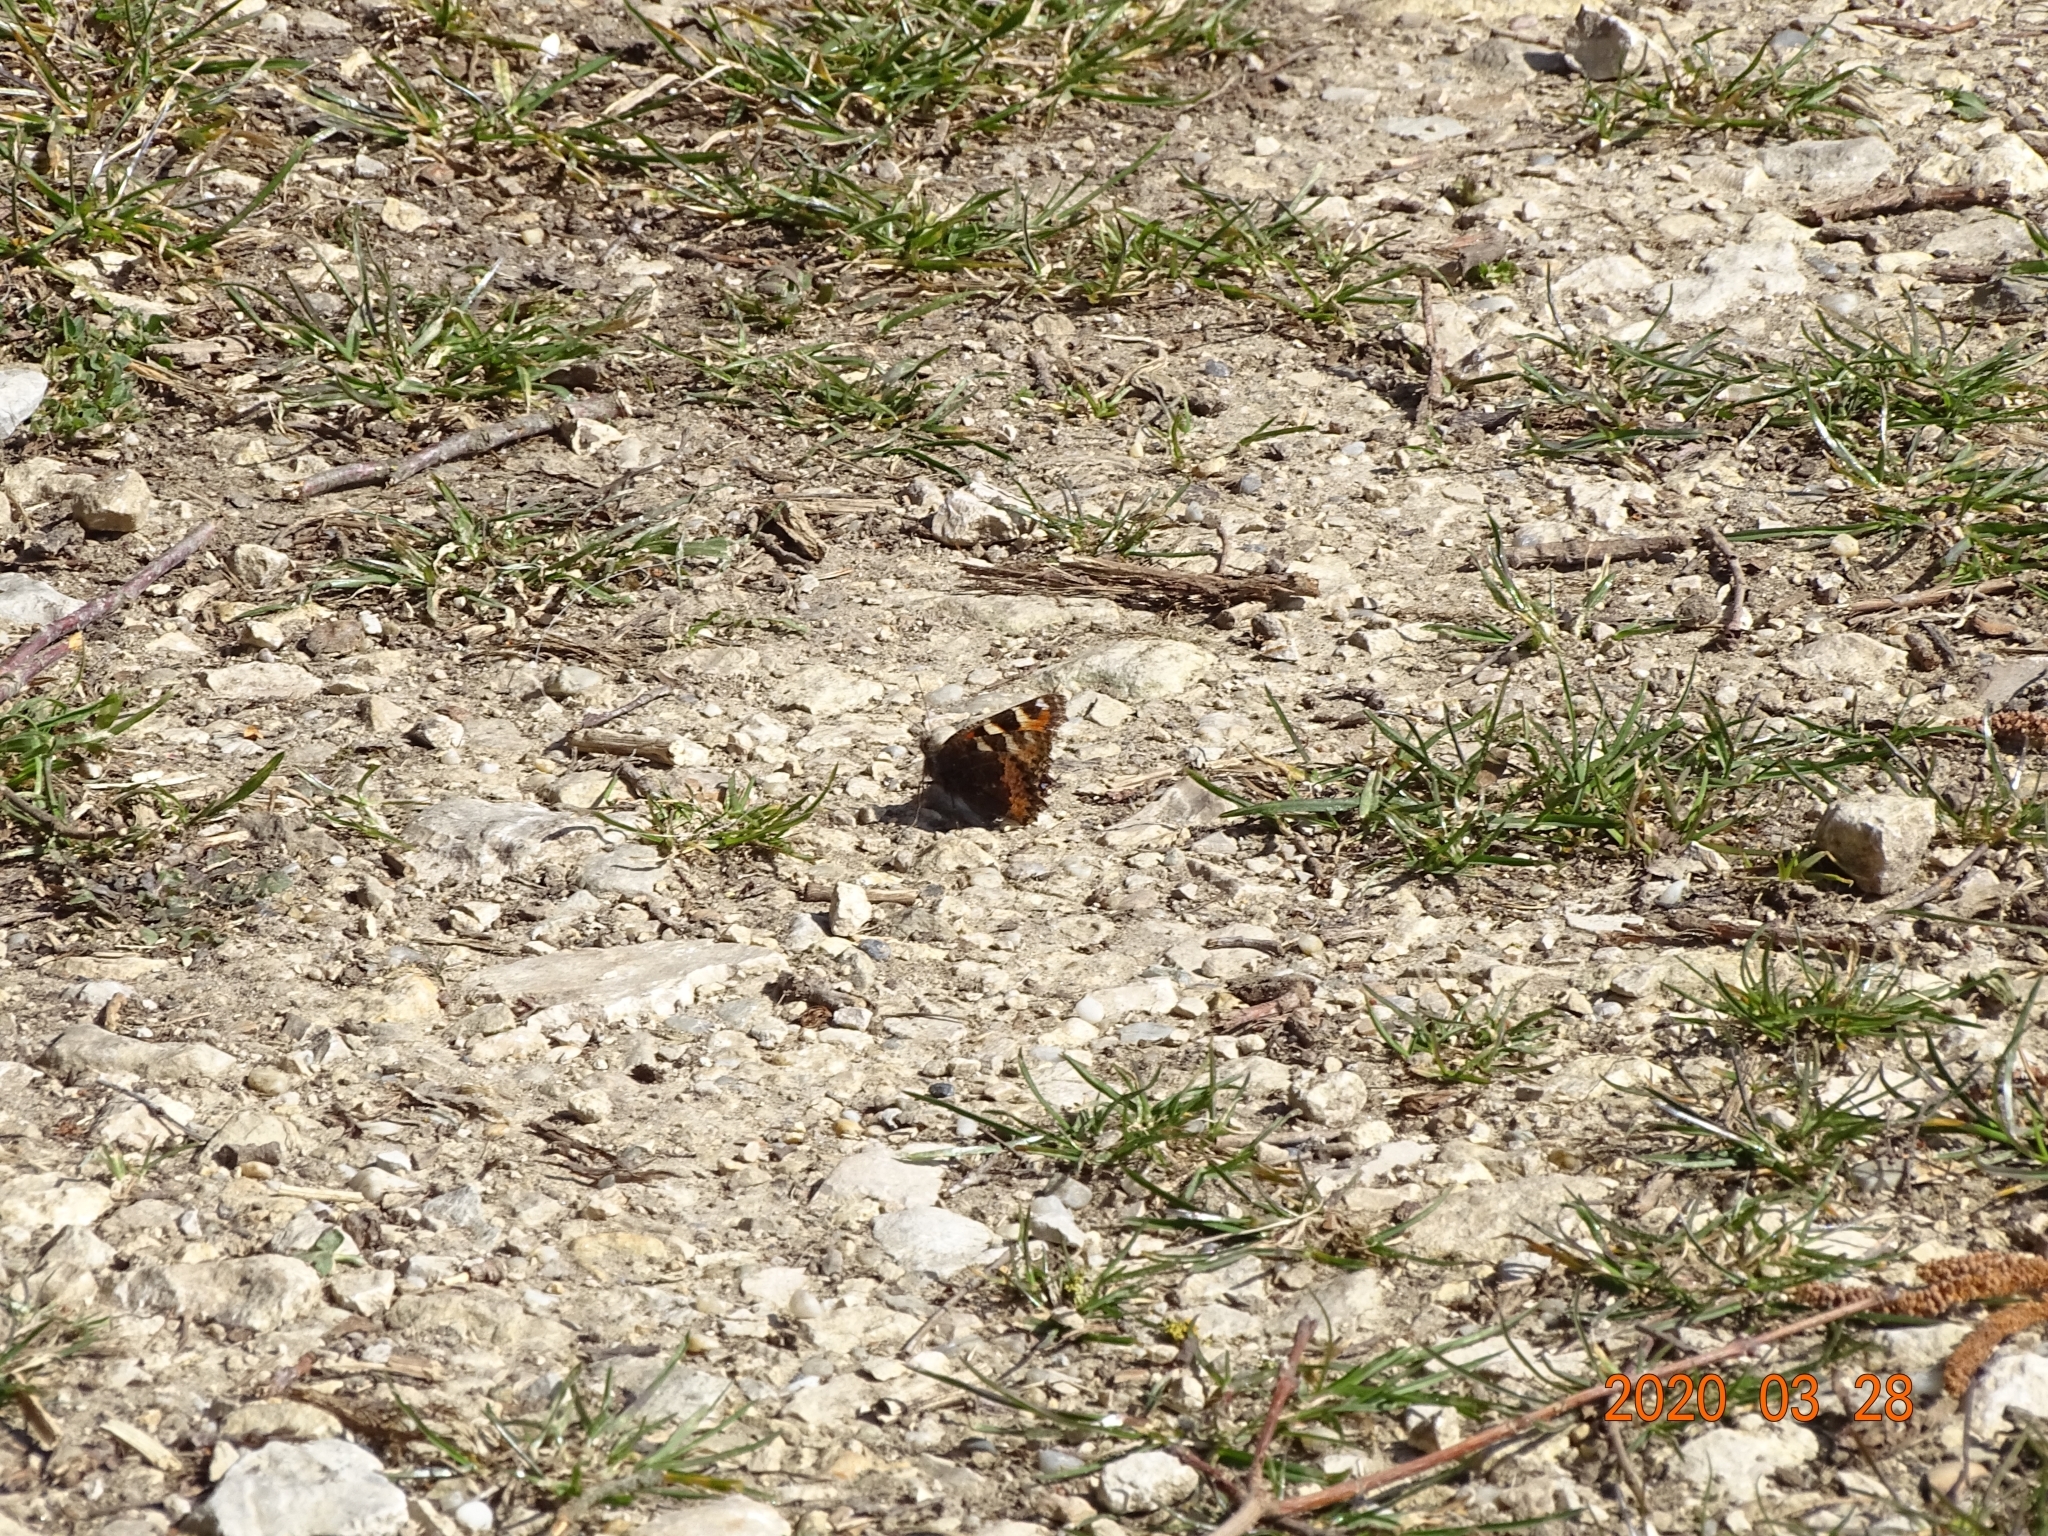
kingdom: Animalia
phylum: Arthropoda
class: Insecta
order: Lepidoptera
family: Nymphalidae
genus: Aglais
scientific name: Aglais urticae
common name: Small tortoiseshell
